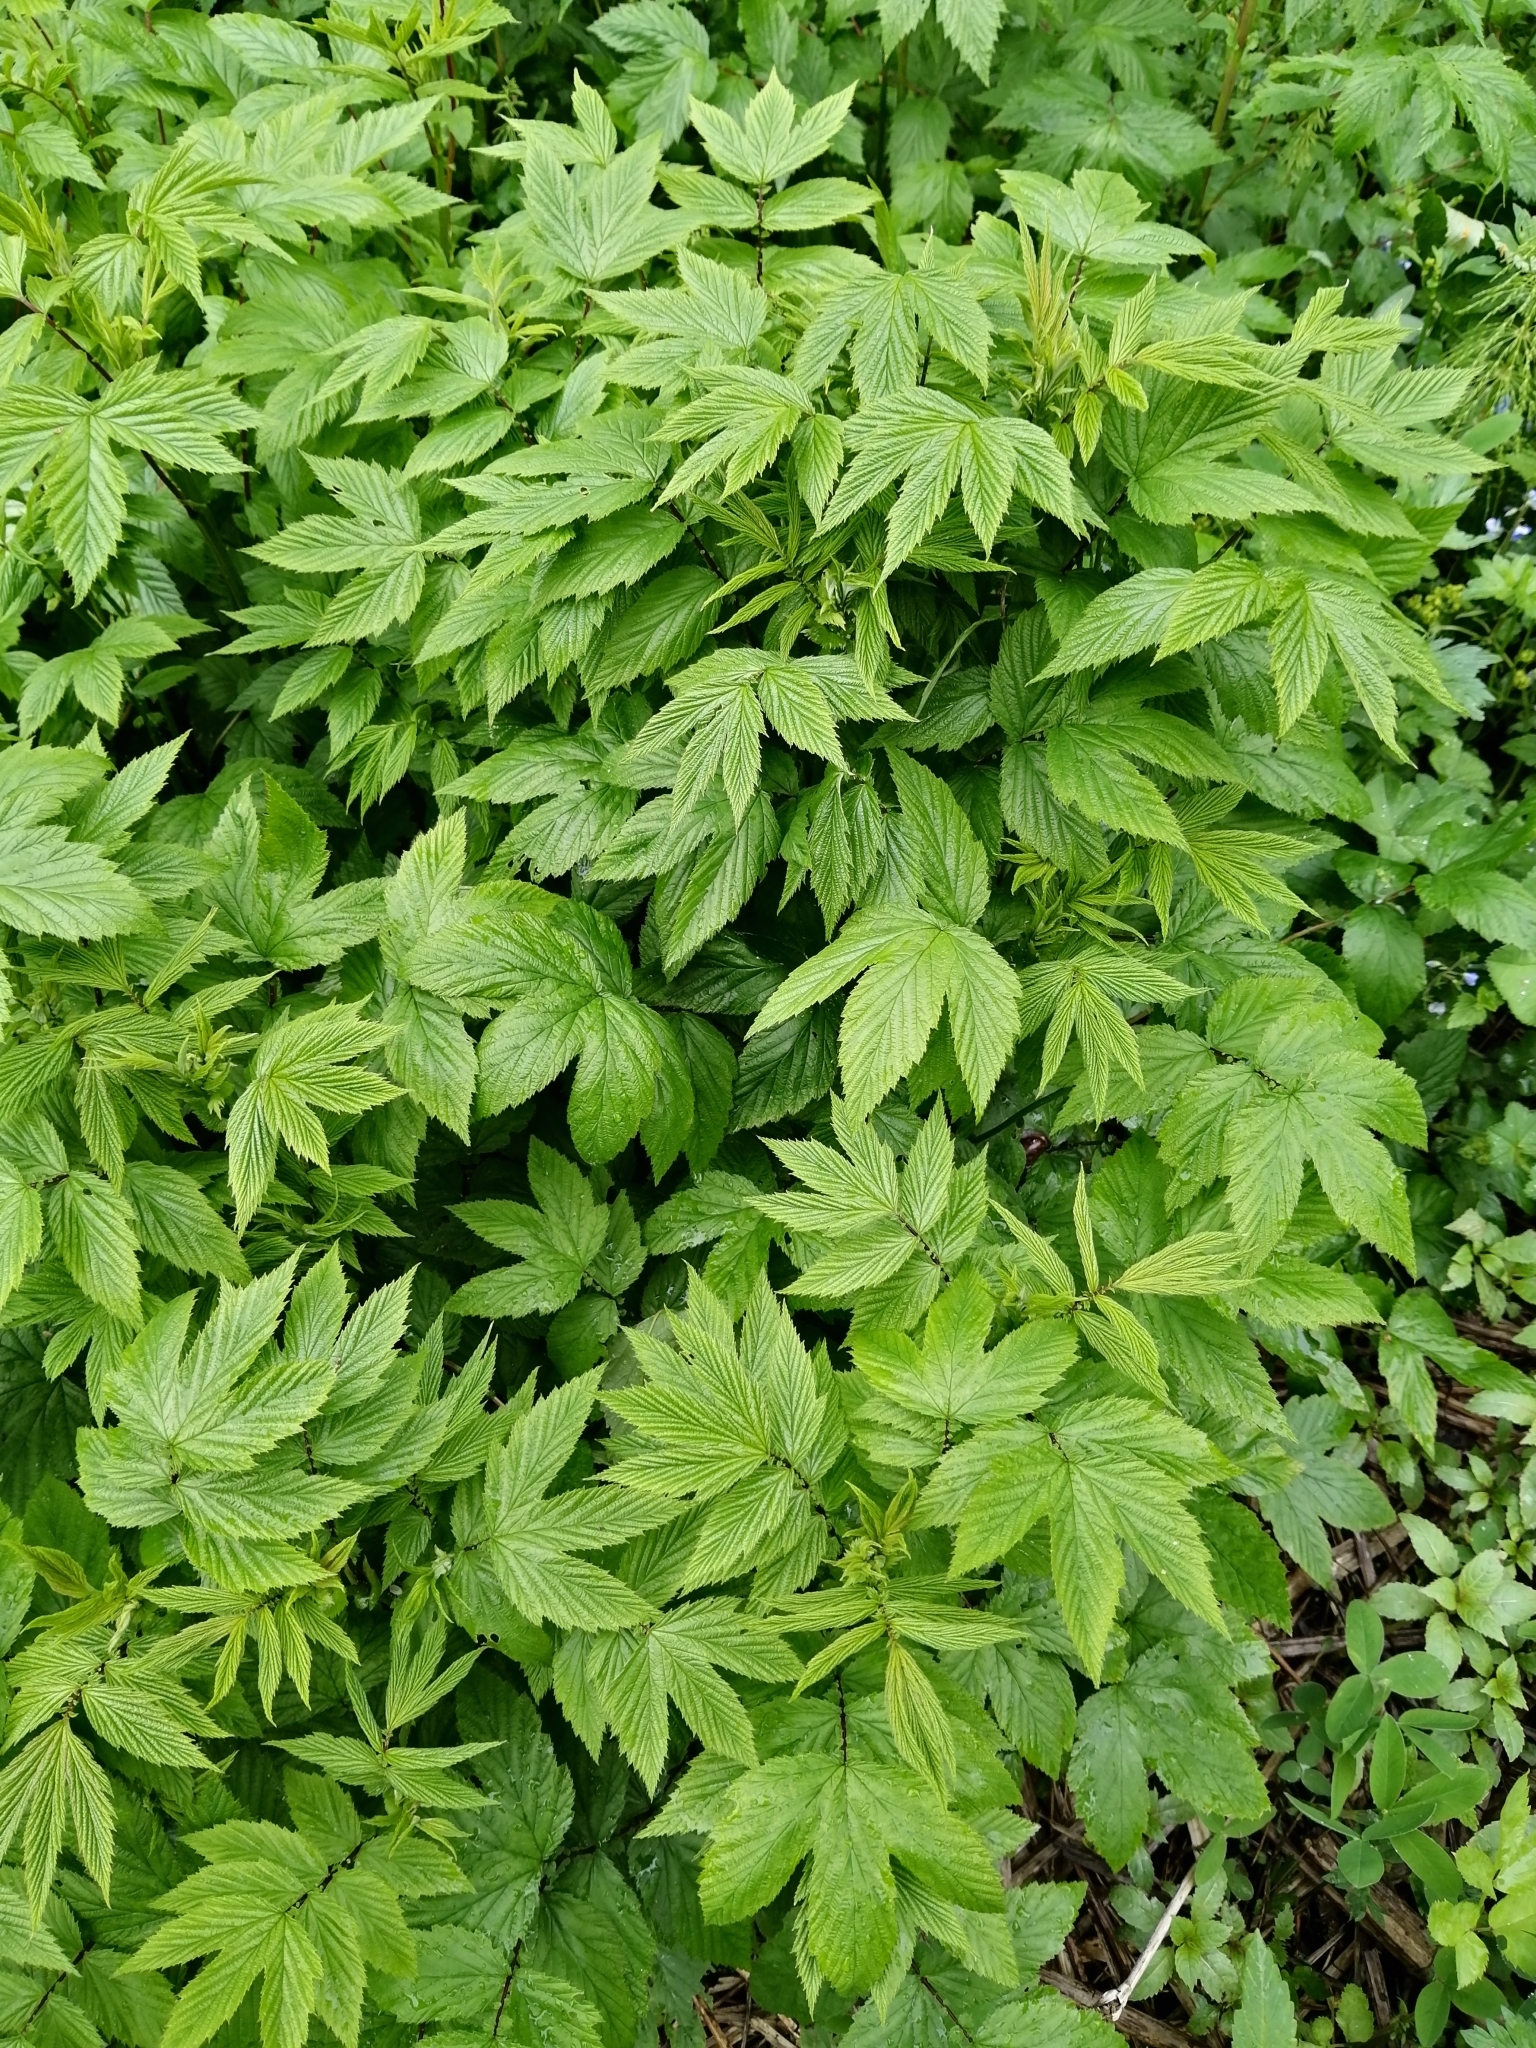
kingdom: Plantae
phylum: Tracheophyta
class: Magnoliopsida
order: Rosales
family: Rosaceae
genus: Filipendula
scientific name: Filipendula ulmaria
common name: Meadowsweet
